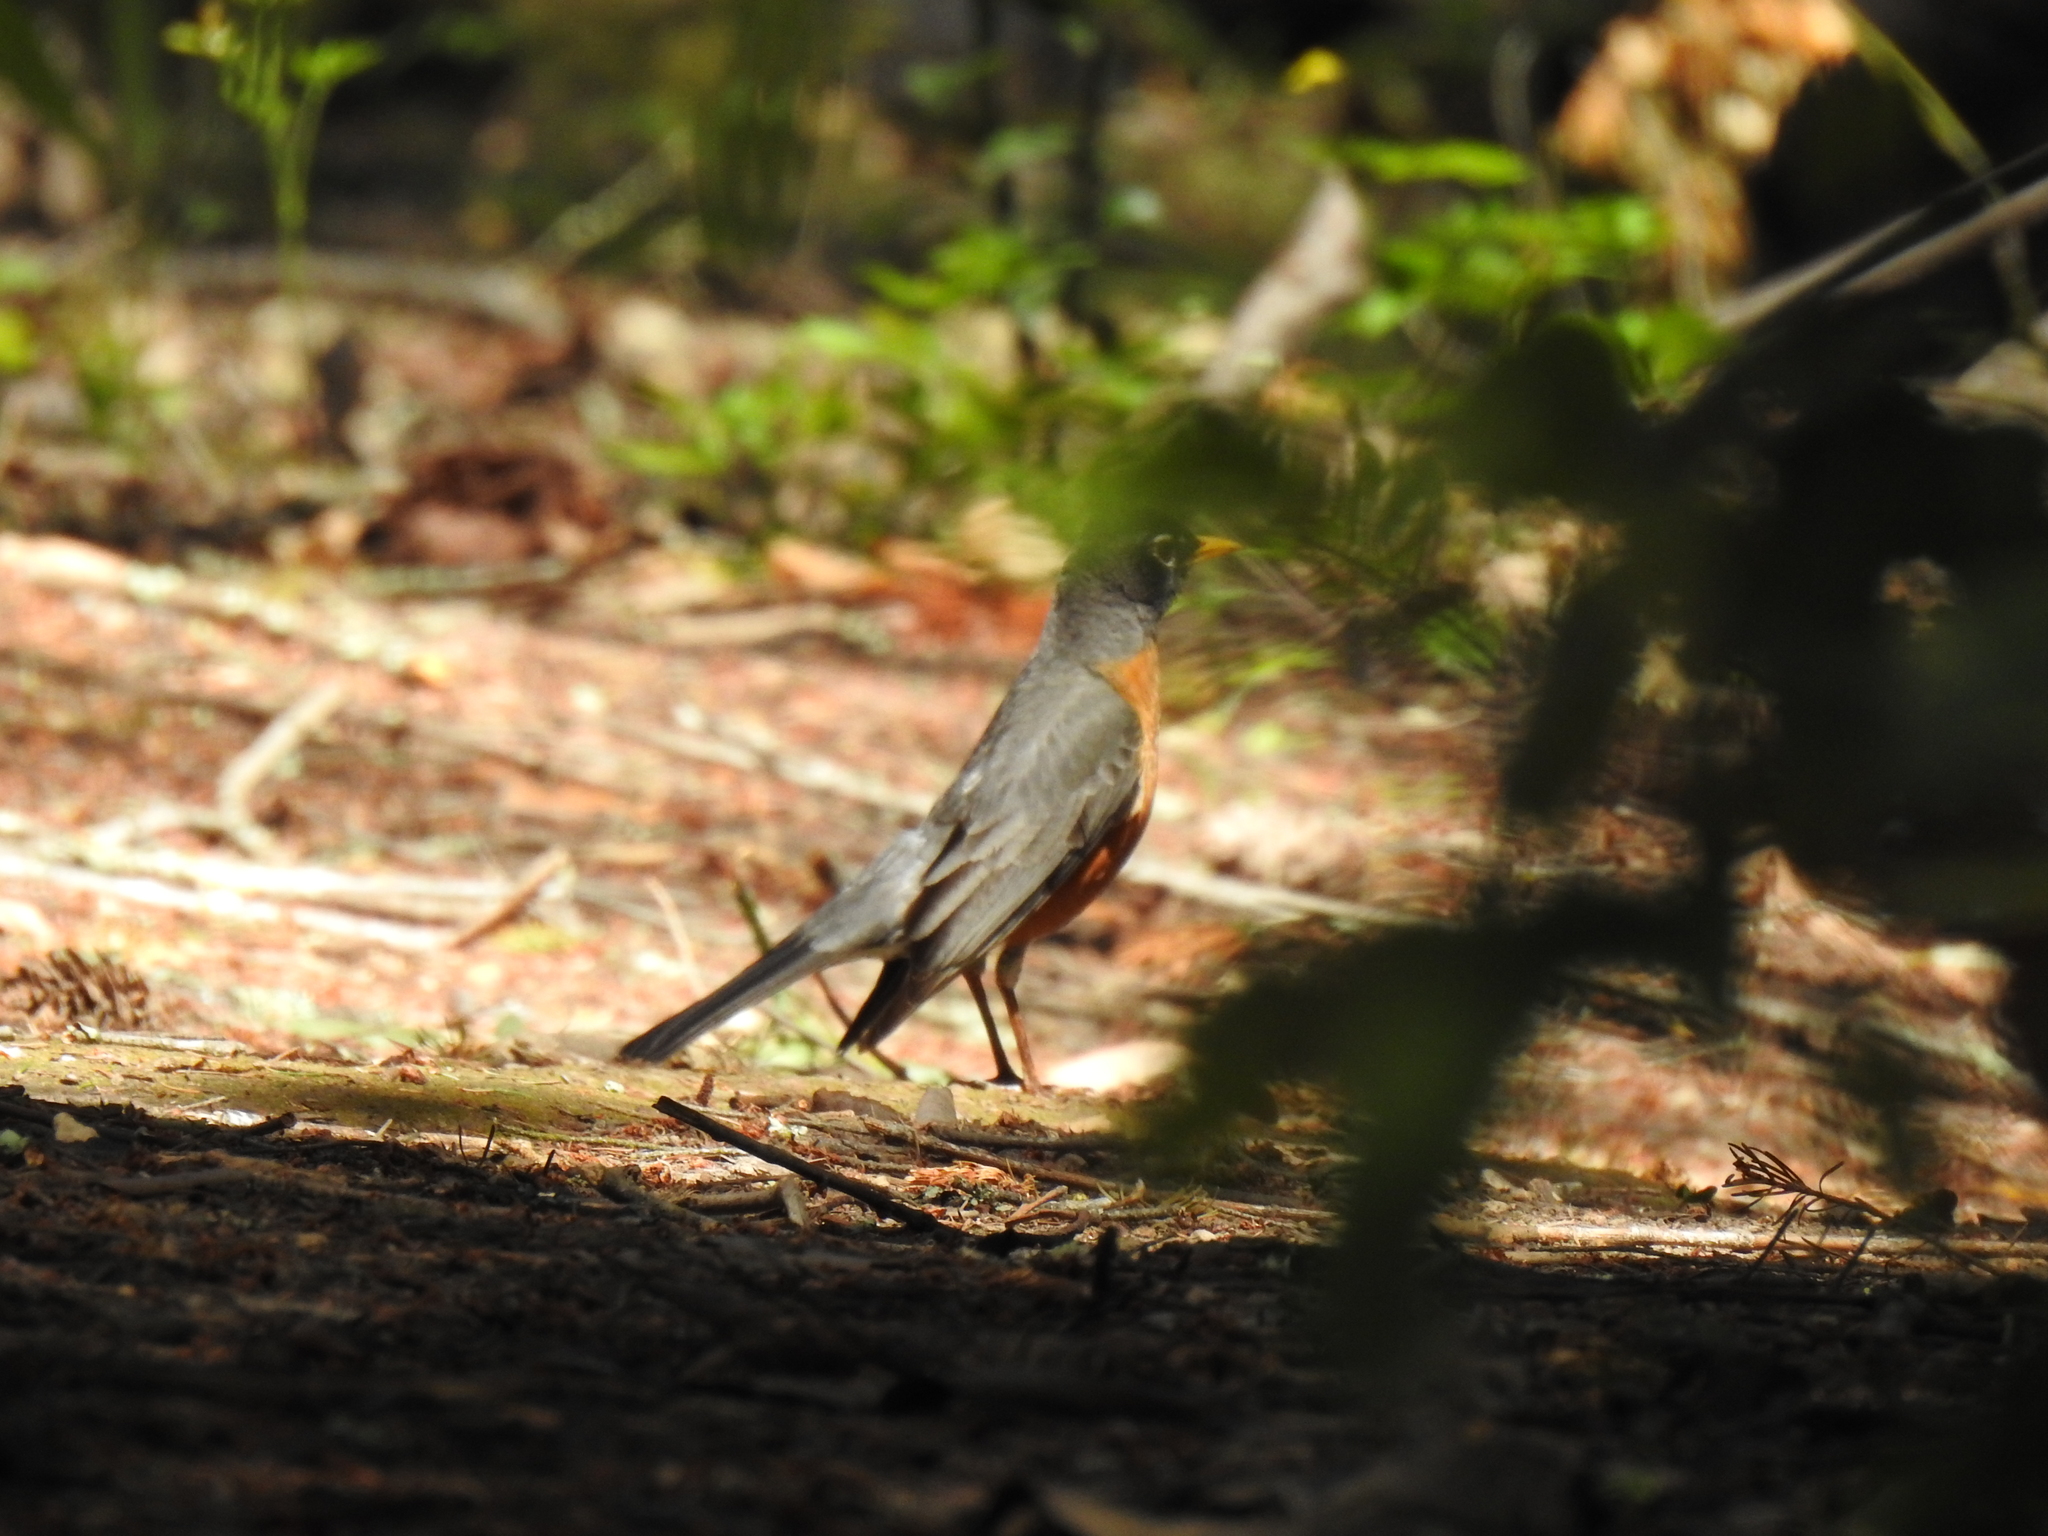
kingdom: Animalia
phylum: Chordata
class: Aves
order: Passeriformes
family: Turdidae
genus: Turdus
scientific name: Turdus migratorius
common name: American robin
